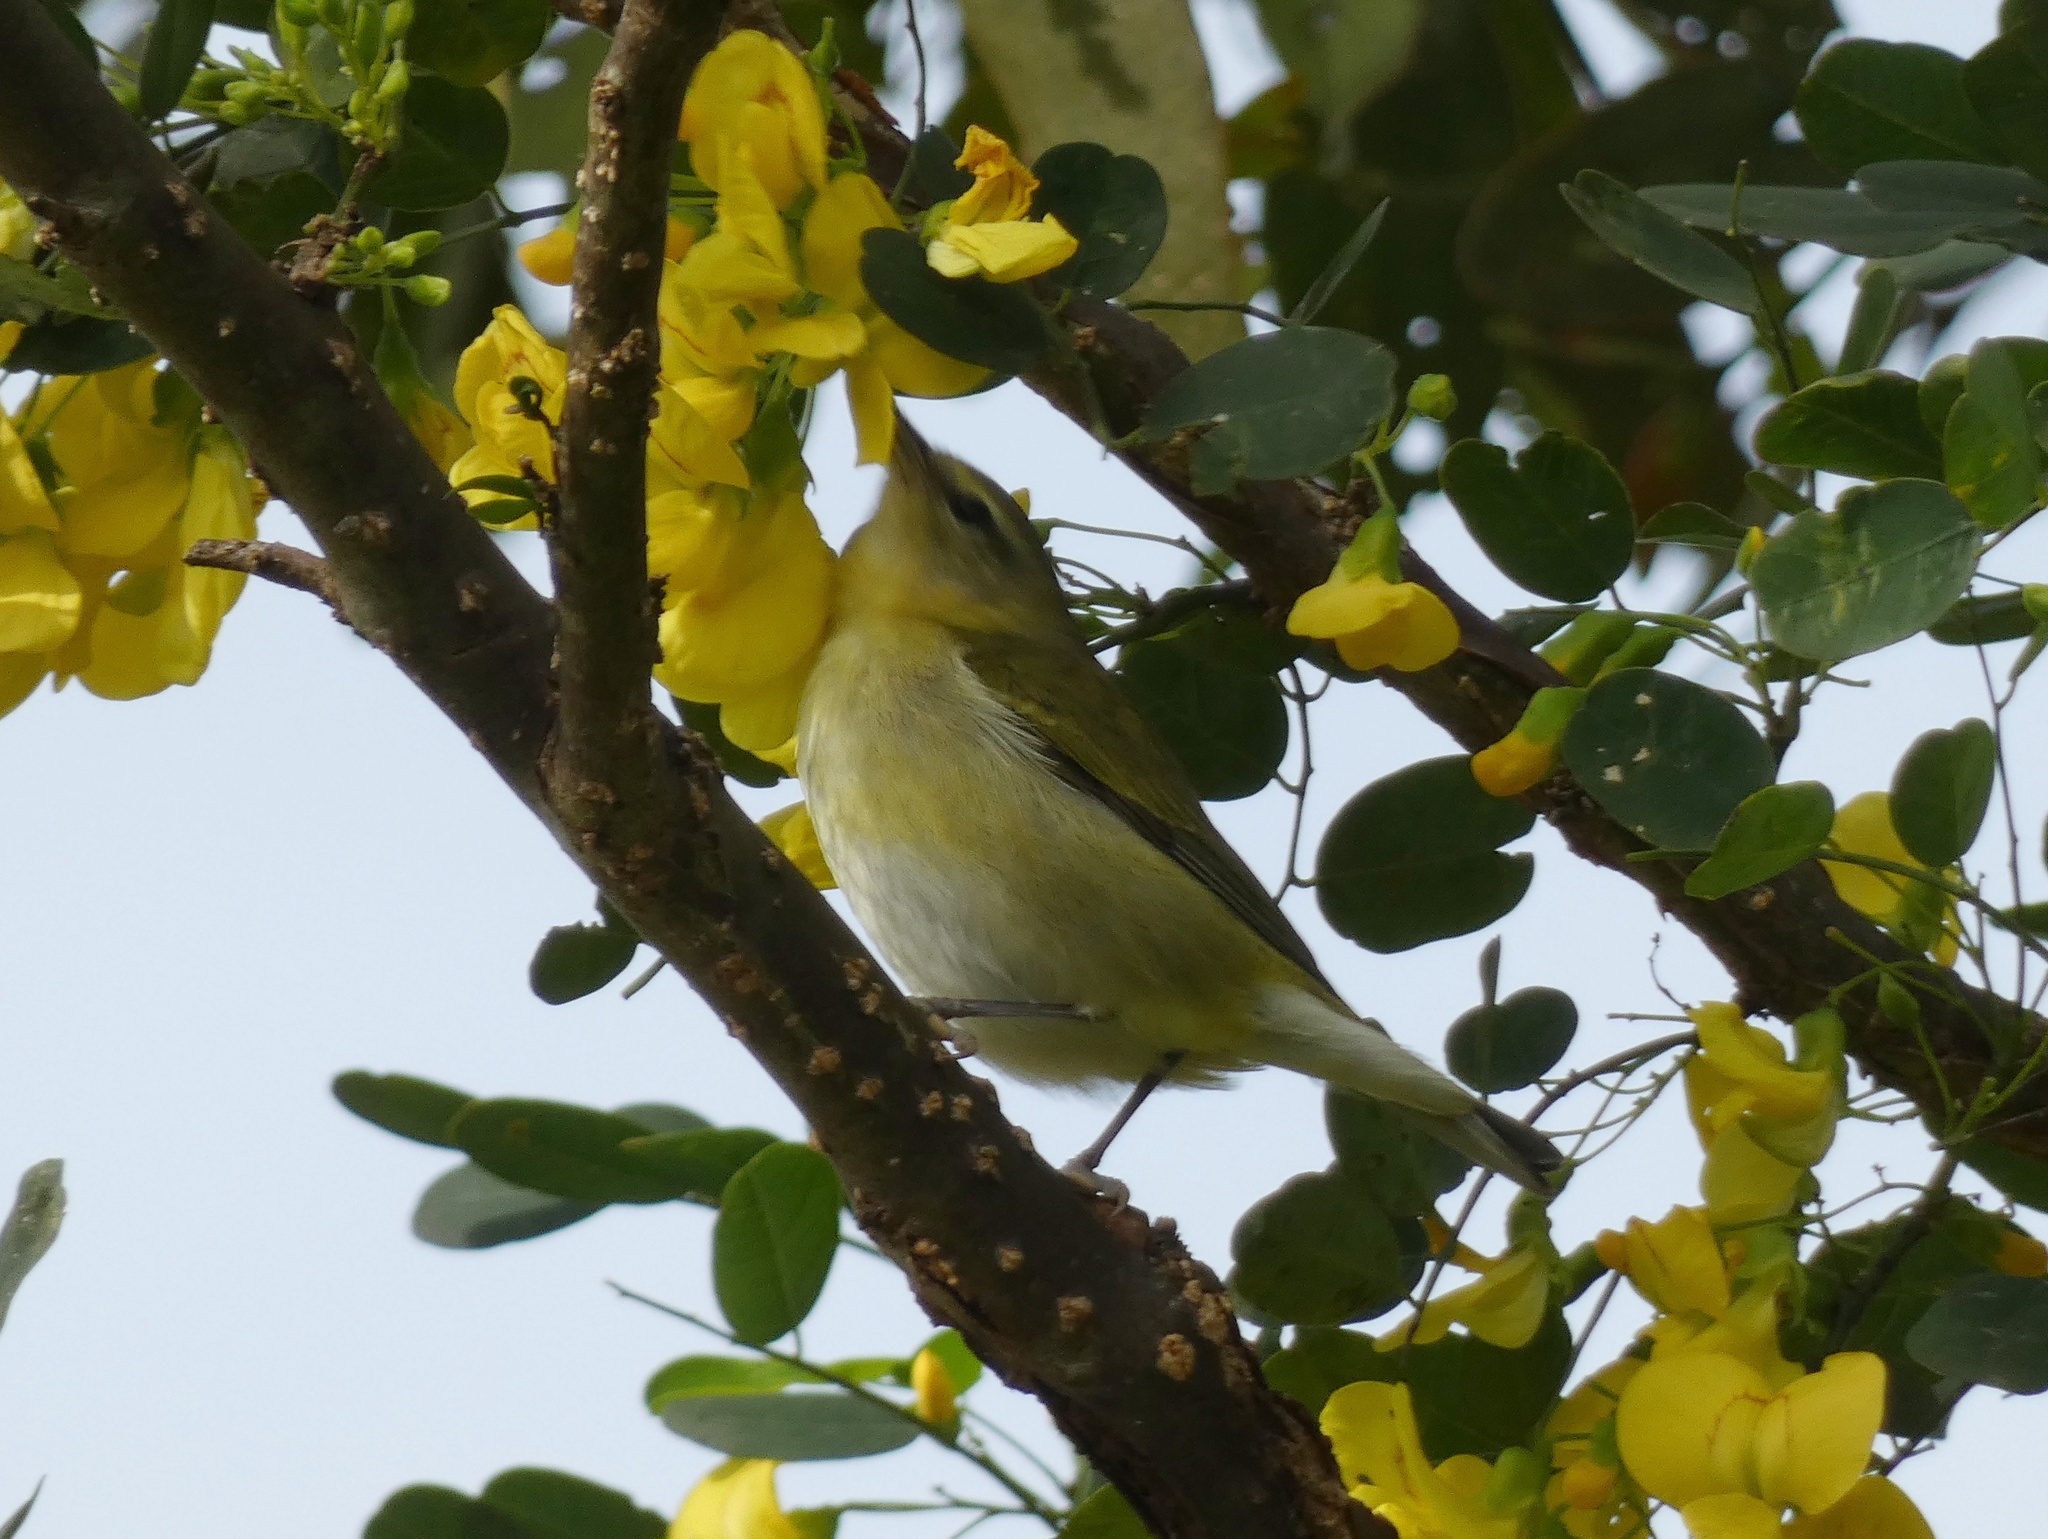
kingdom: Animalia
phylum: Chordata
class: Aves
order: Passeriformes
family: Parulidae
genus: Leiothlypis
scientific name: Leiothlypis peregrina
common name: Tennessee warbler
